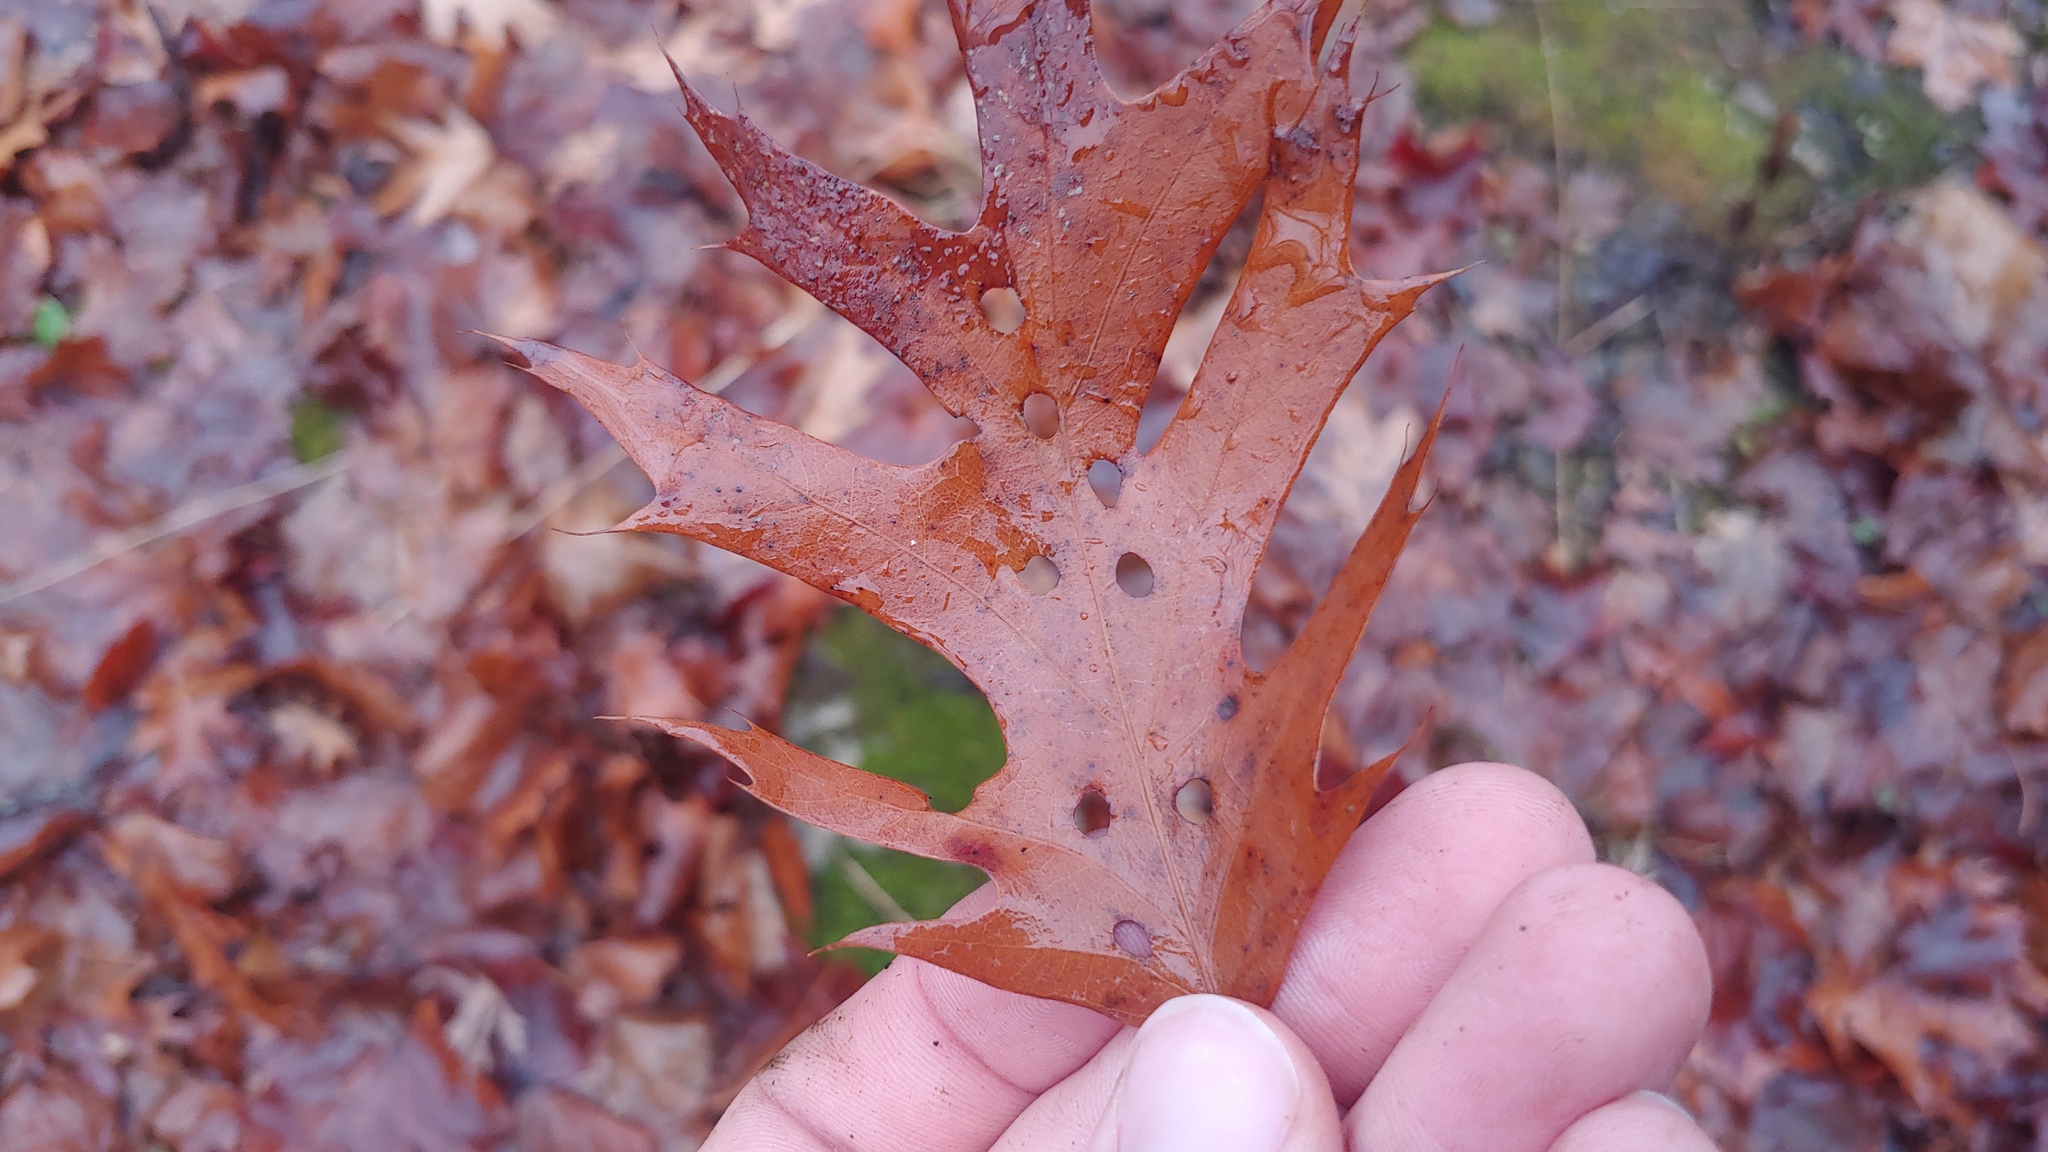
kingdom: Plantae
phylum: Tracheophyta
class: Magnoliopsida
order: Fagales
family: Fagaceae
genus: Quercus
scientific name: Quercus rubra
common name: Red oak
